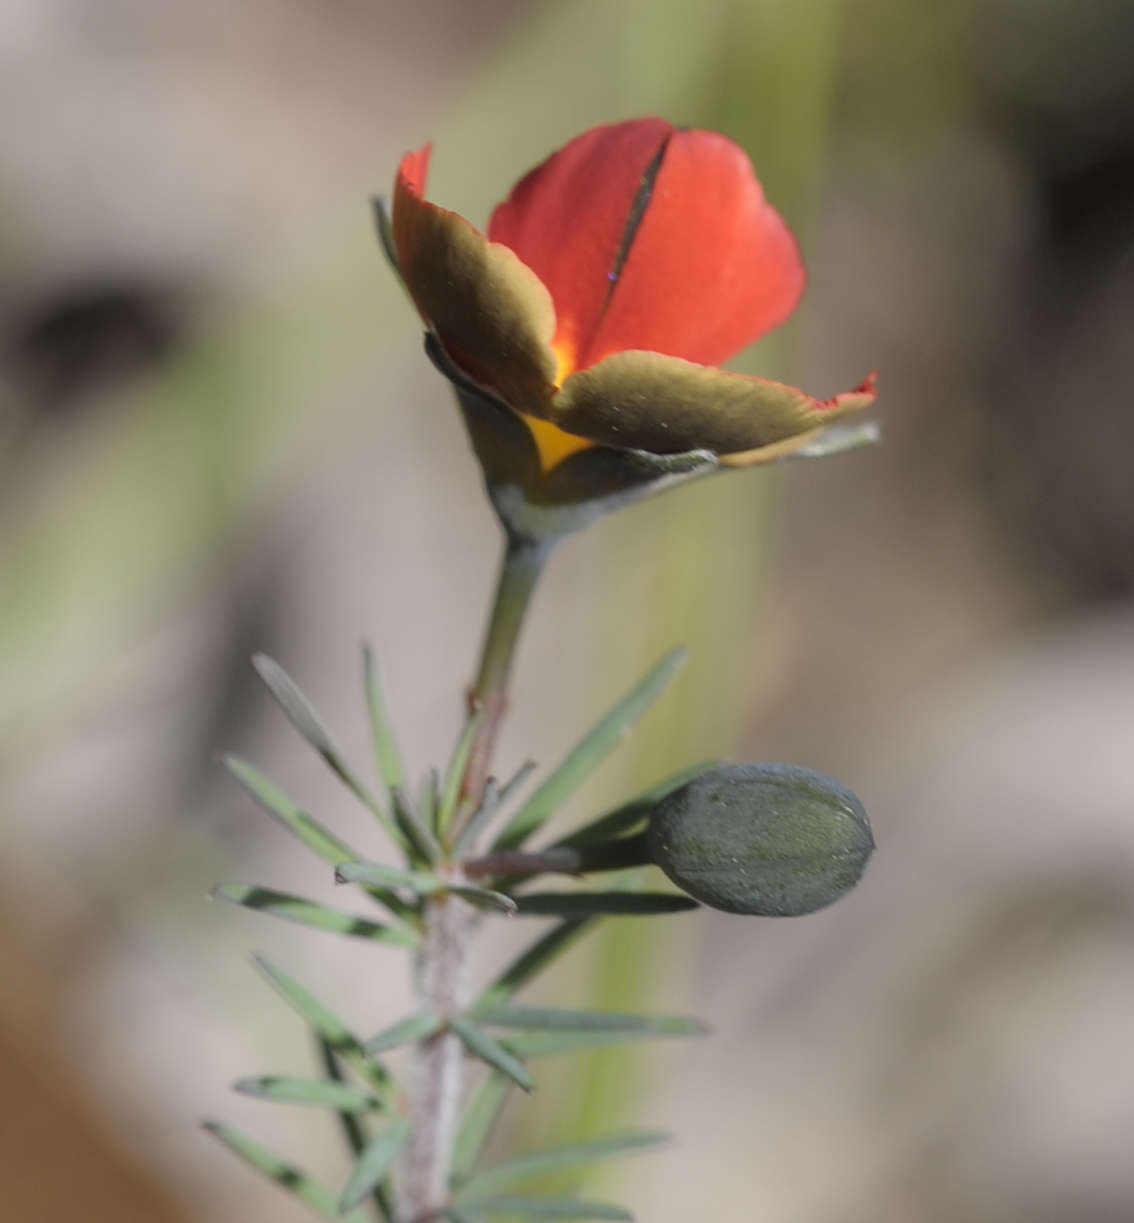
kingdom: Plantae
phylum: Tracheophyta
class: Magnoliopsida
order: Fabales
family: Fabaceae
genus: Gompholobium
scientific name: Gompholobium ecostatum
